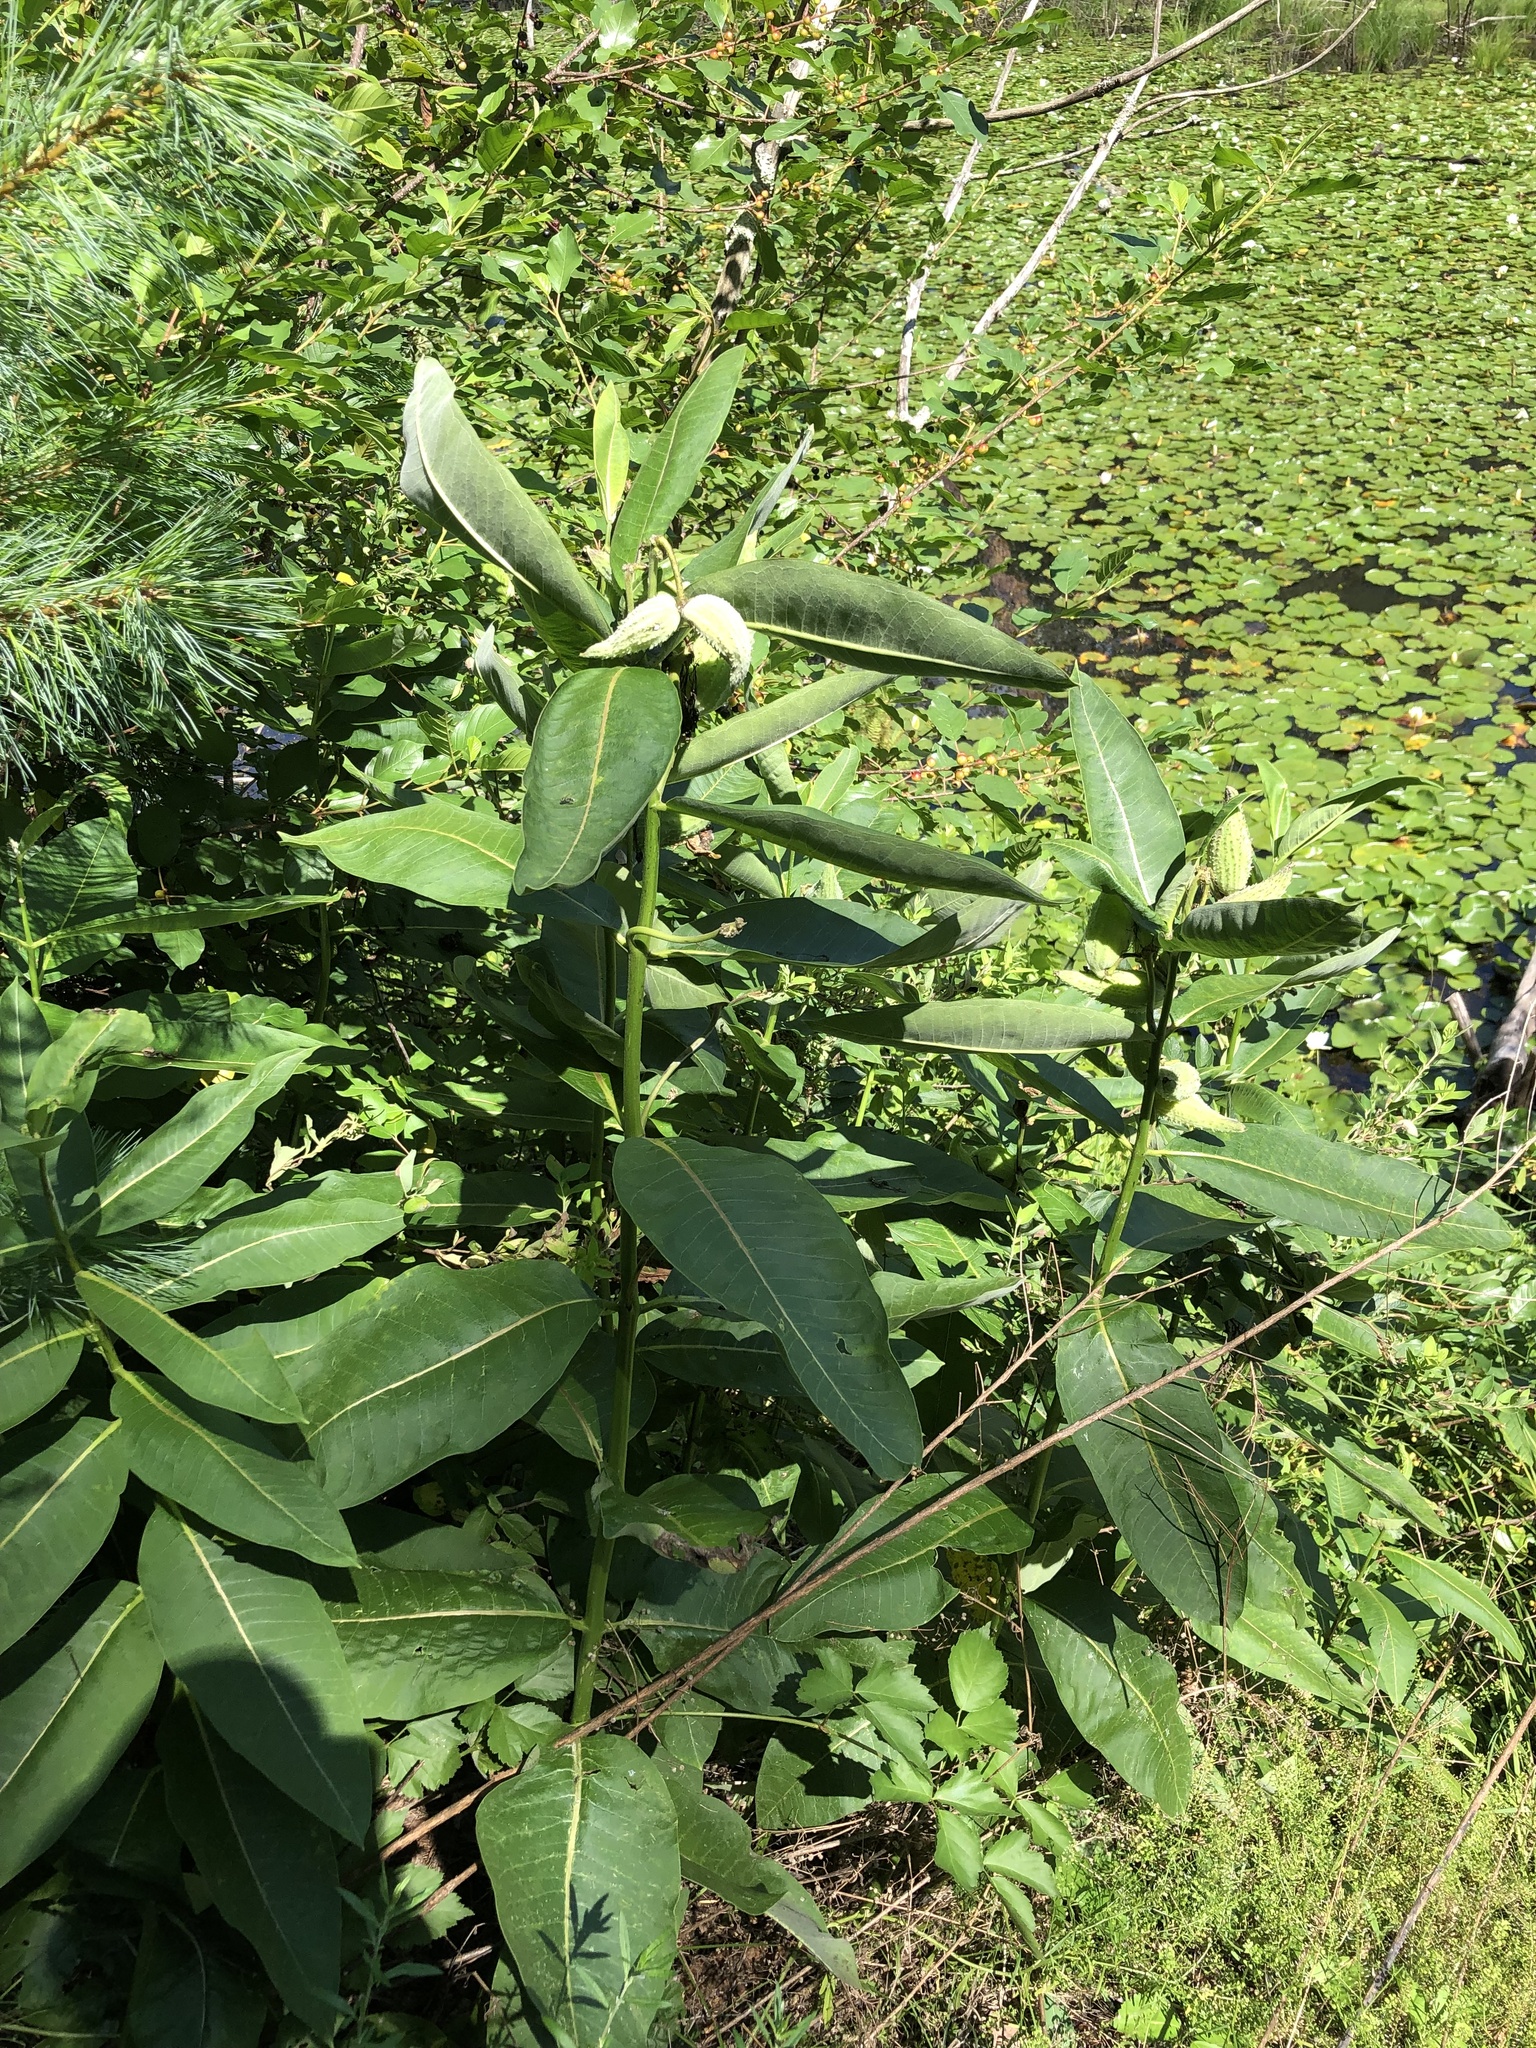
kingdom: Plantae
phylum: Tracheophyta
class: Magnoliopsida
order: Gentianales
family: Apocynaceae
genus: Asclepias
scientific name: Asclepias syriaca
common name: Common milkweed
